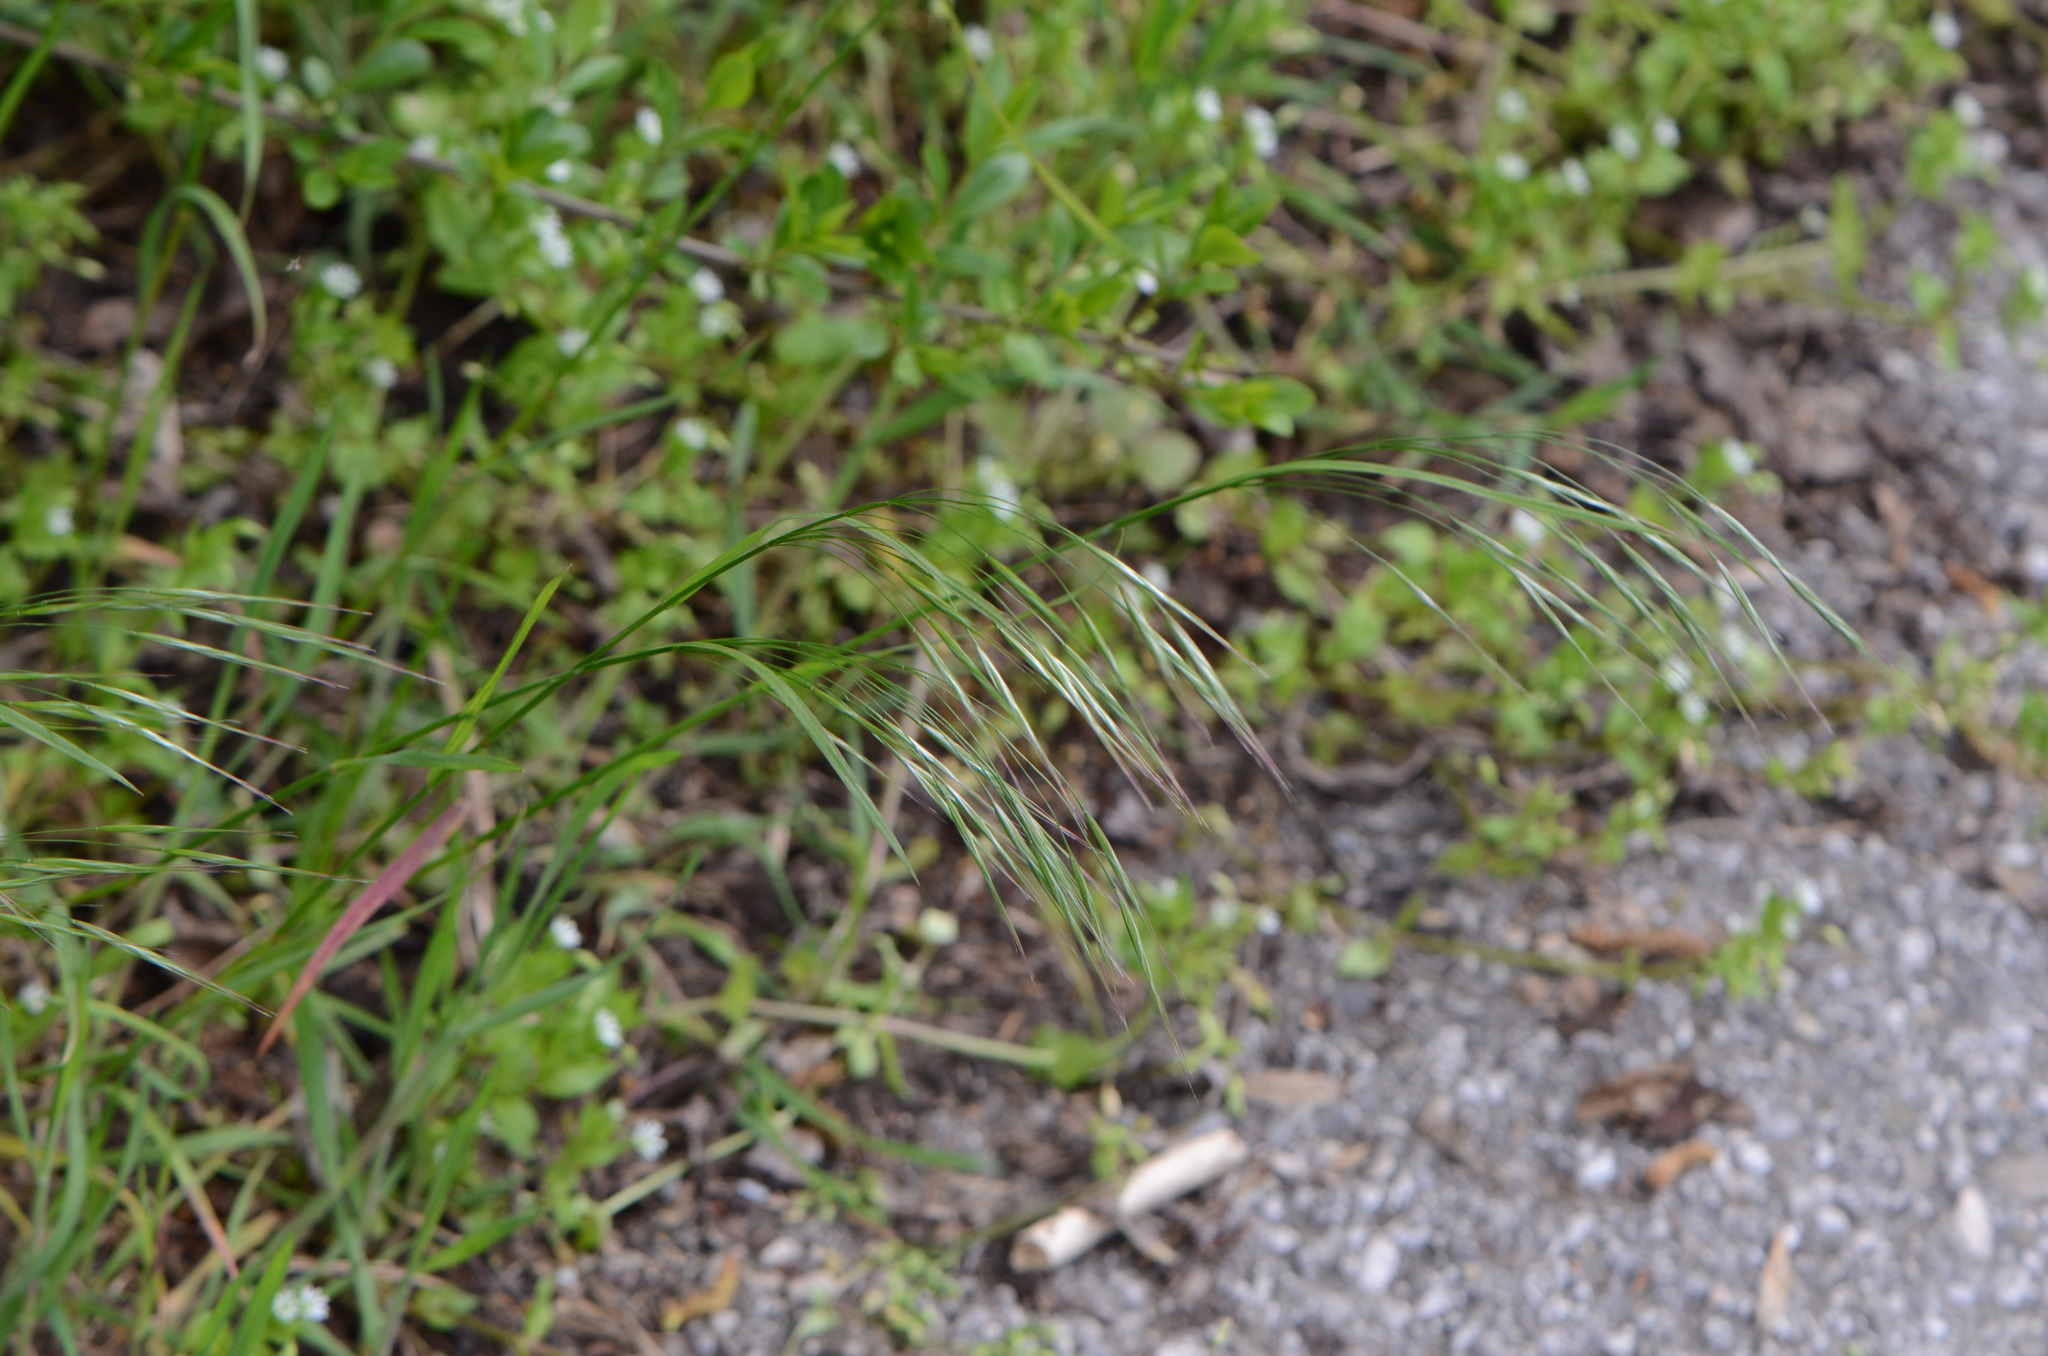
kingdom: Plantae
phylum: Tracheophyta
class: Liliopsida
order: Poales
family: Poaceae
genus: Bromus
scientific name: Bromus sterilis
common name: Poverty brome
